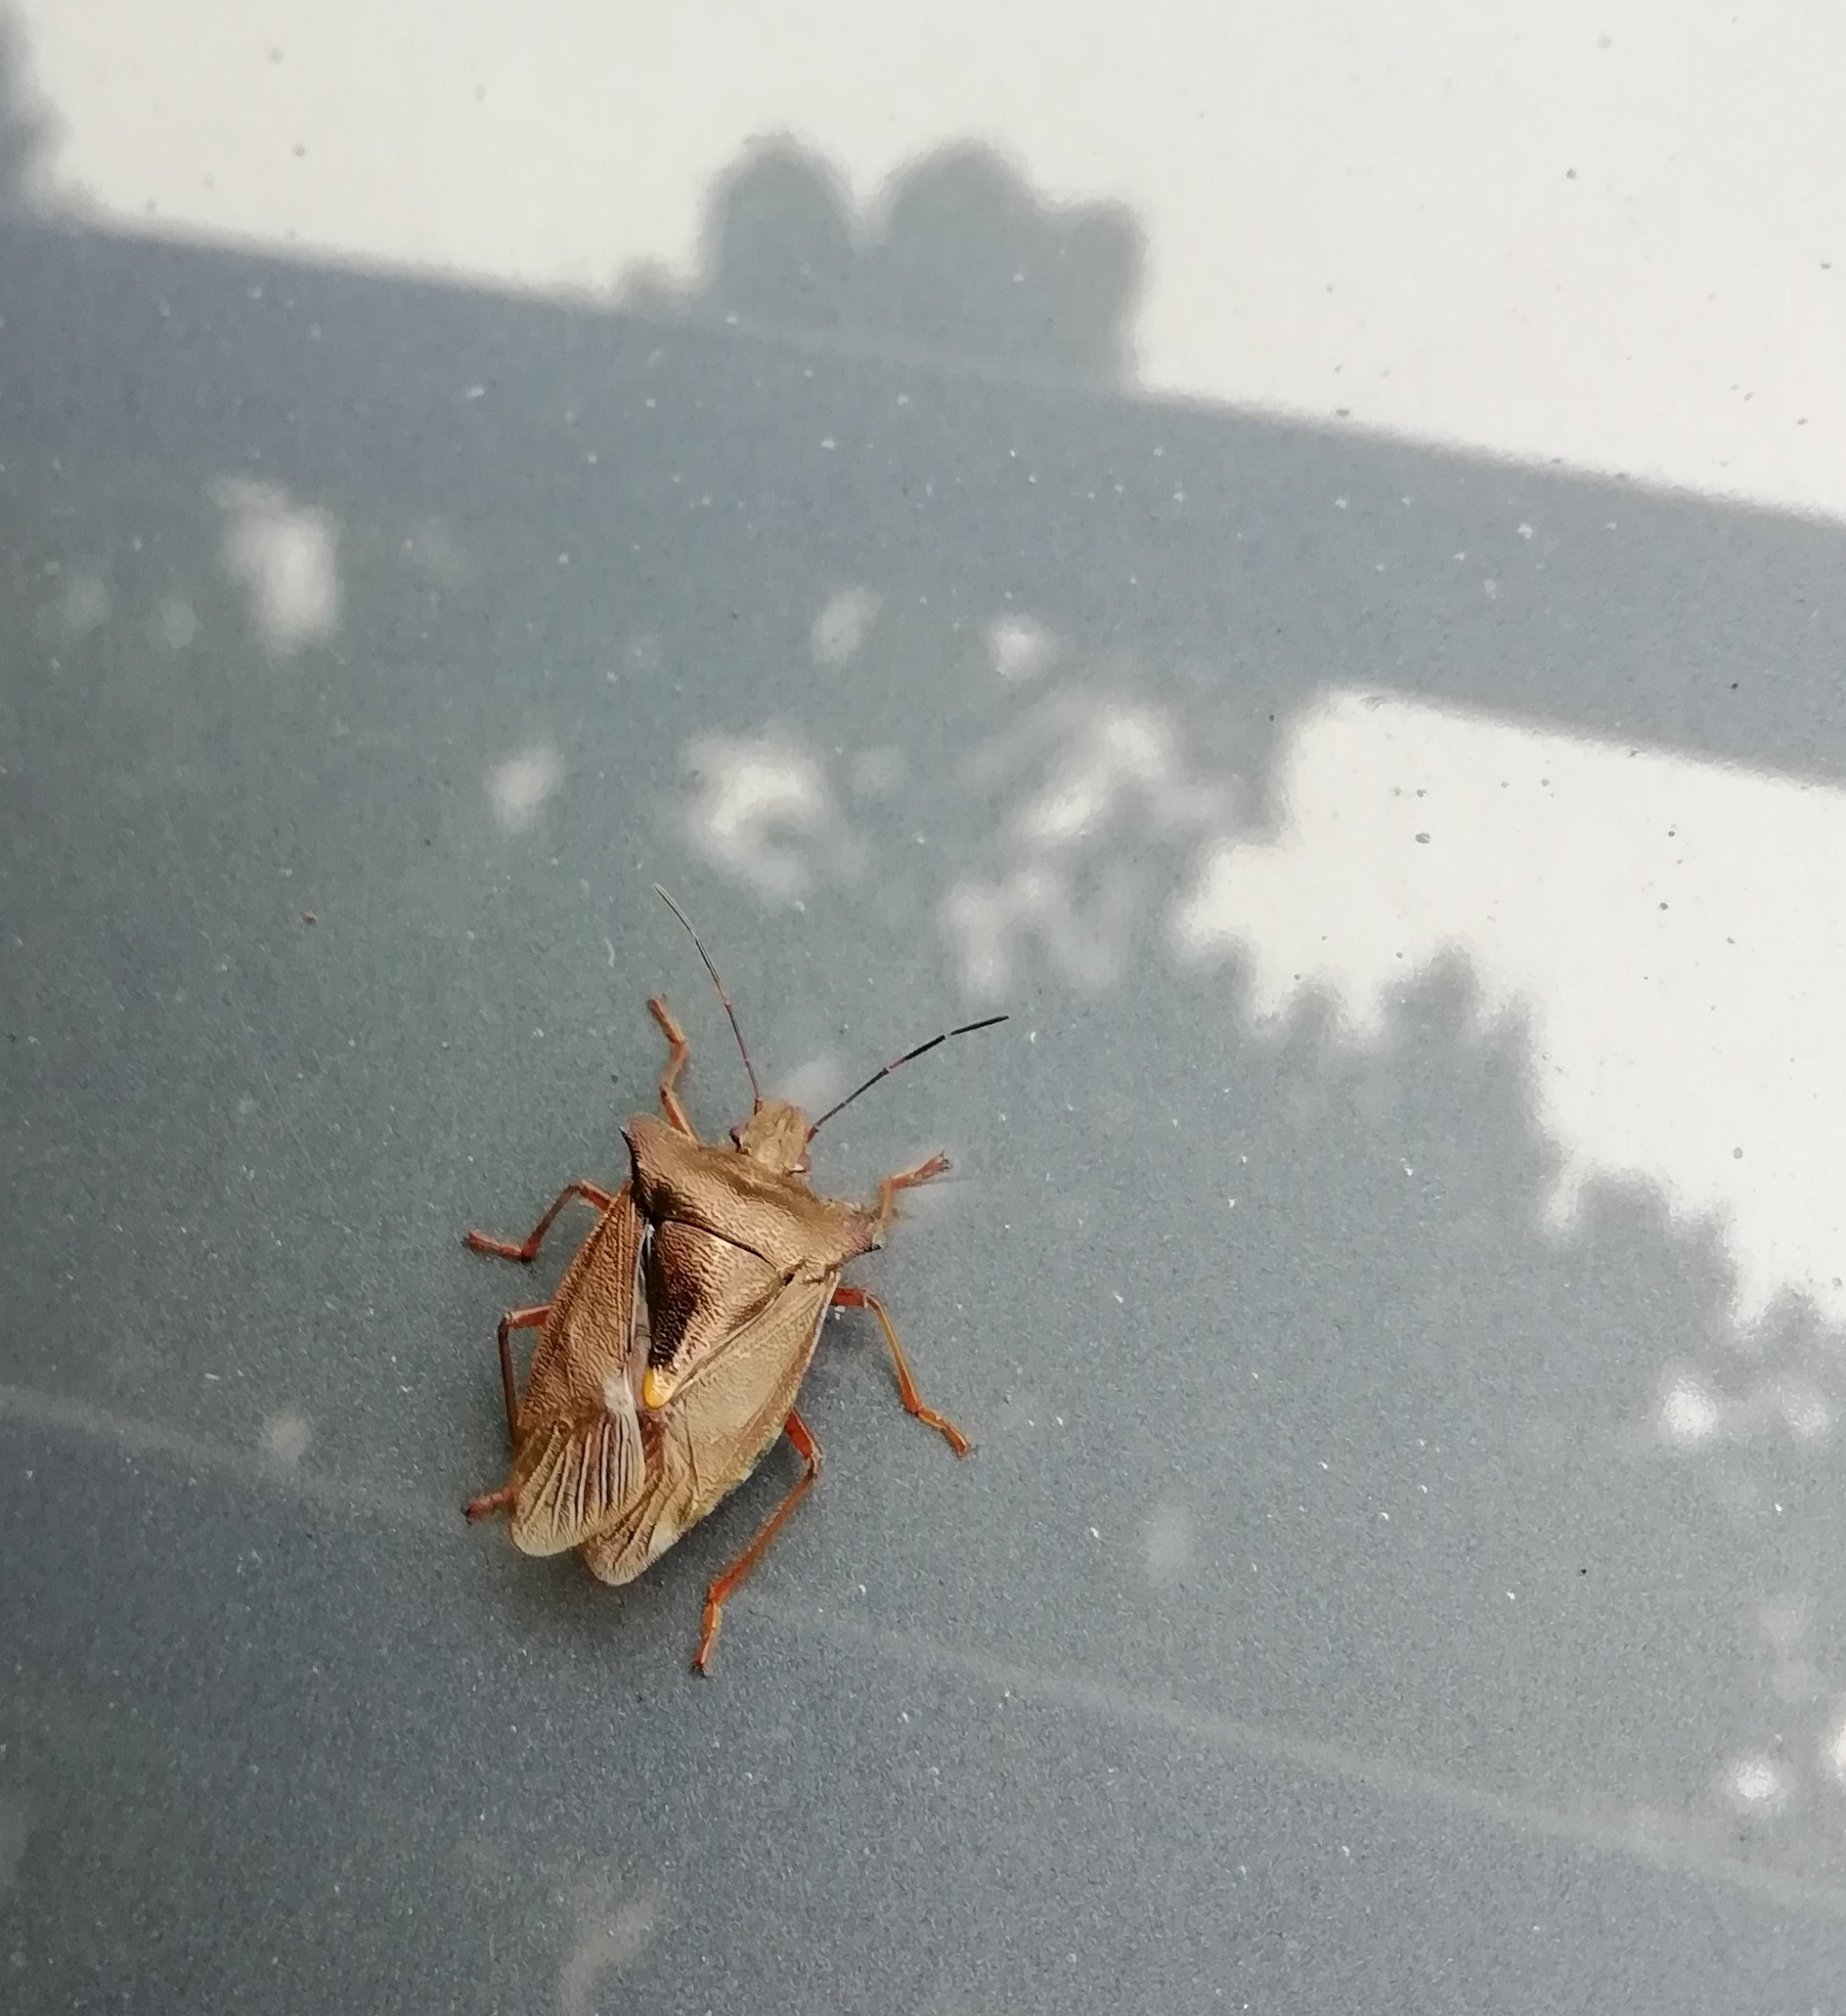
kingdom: Animalia
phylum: Arthropoda
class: Insecta
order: Hemiptera
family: Pentatomidae
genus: Pentatoma
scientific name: Pentatoma rufipes
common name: Forest bug
